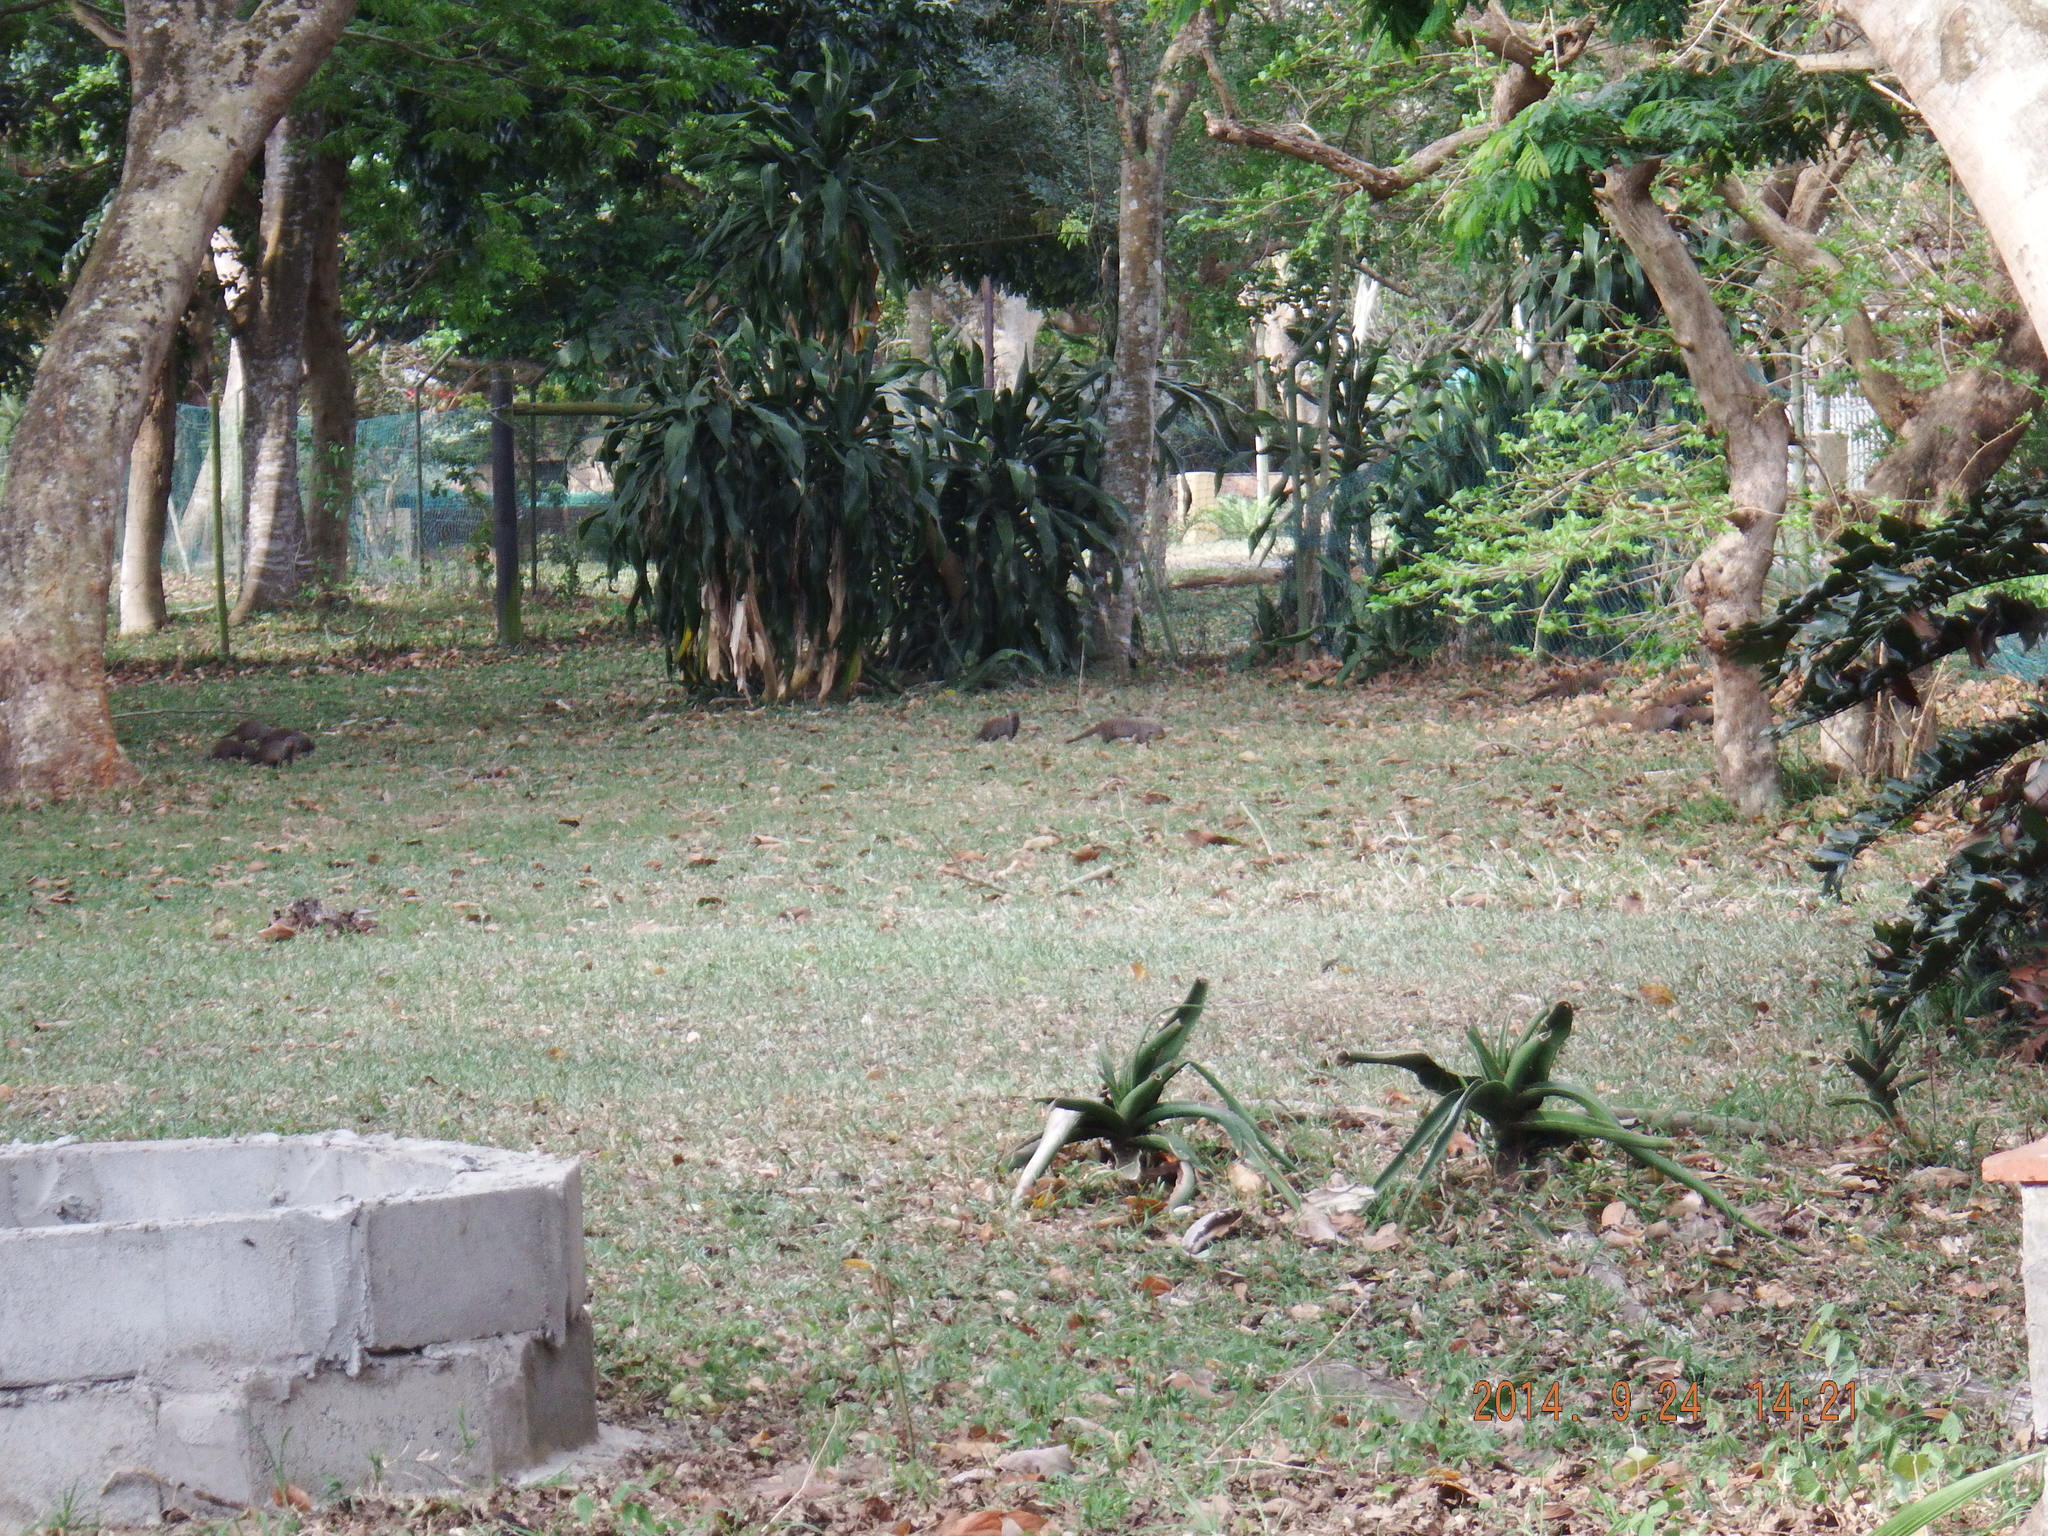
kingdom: Animalia
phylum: Chordata
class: Mammalia
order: Carnivora
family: Herpestidae
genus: Mungos
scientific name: Mungos mungo
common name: Banded mongoose
